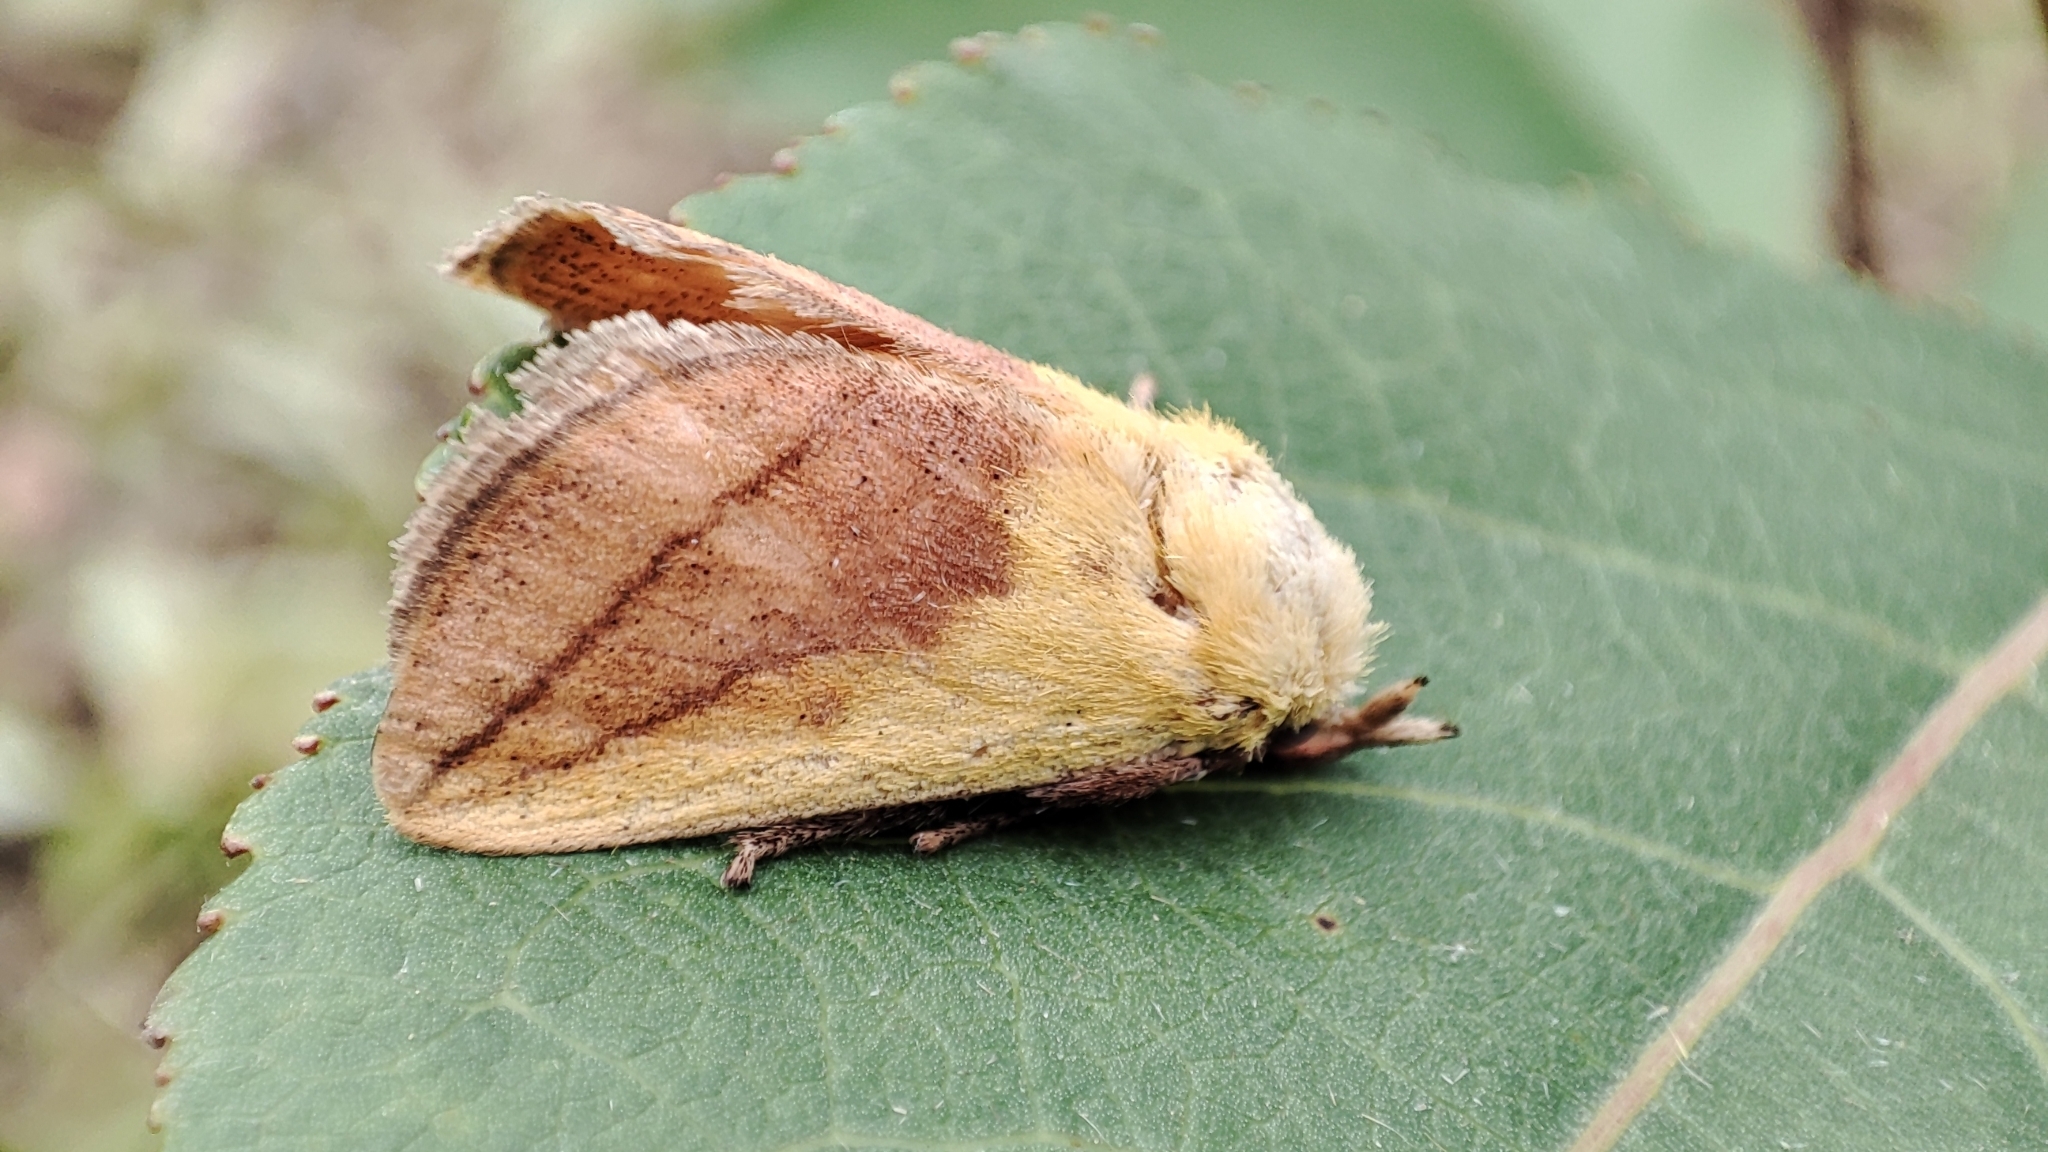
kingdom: Animalia
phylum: Arthropoda
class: Insecta
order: Lepidoptera
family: Limacodidae
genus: Monema
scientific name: Monema flavescens
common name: Oriental moth
